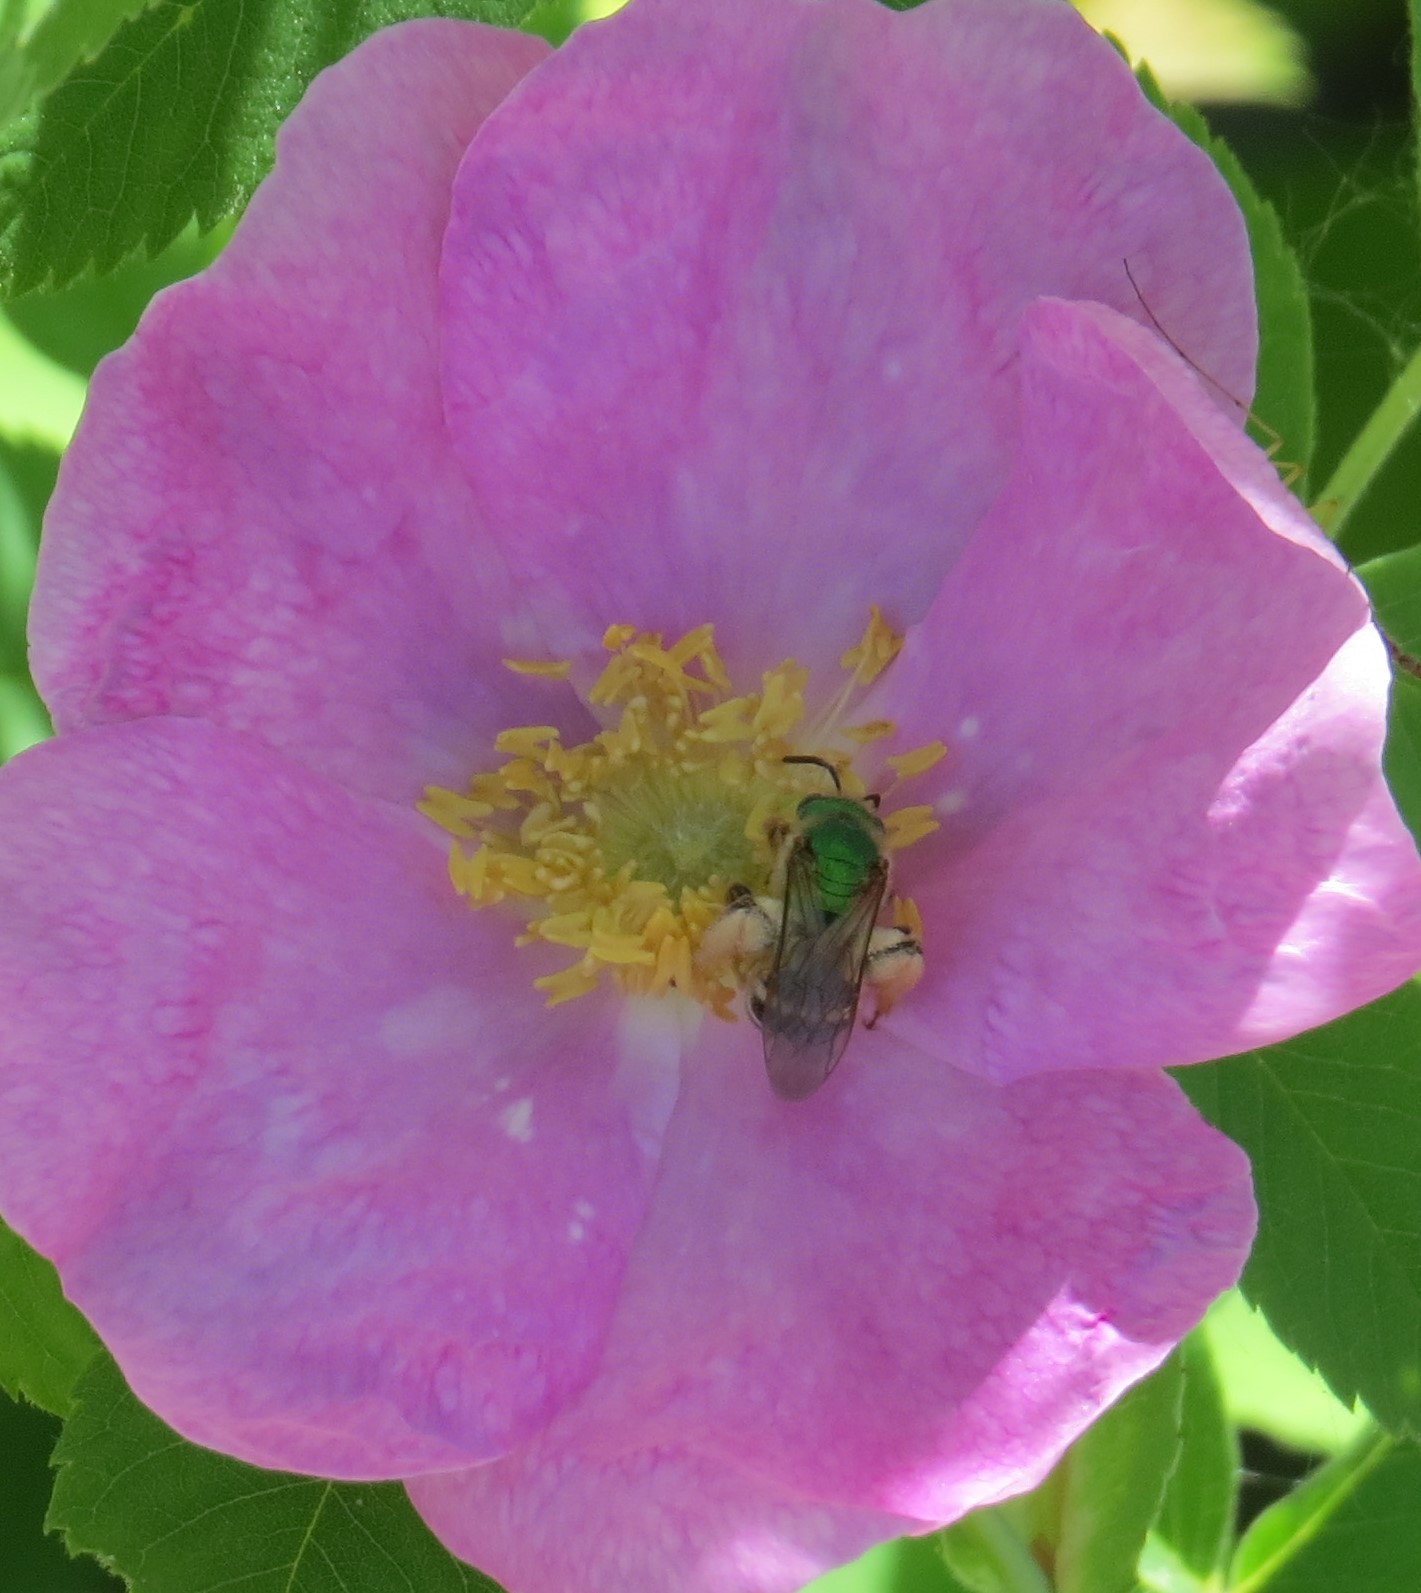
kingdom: Animalia
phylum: Arthropoda
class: Insecta
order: Hymenoptera
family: Halictidae
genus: Agapostemon
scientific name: Agapostemon virescens
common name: Bicolored striped sweat bee
